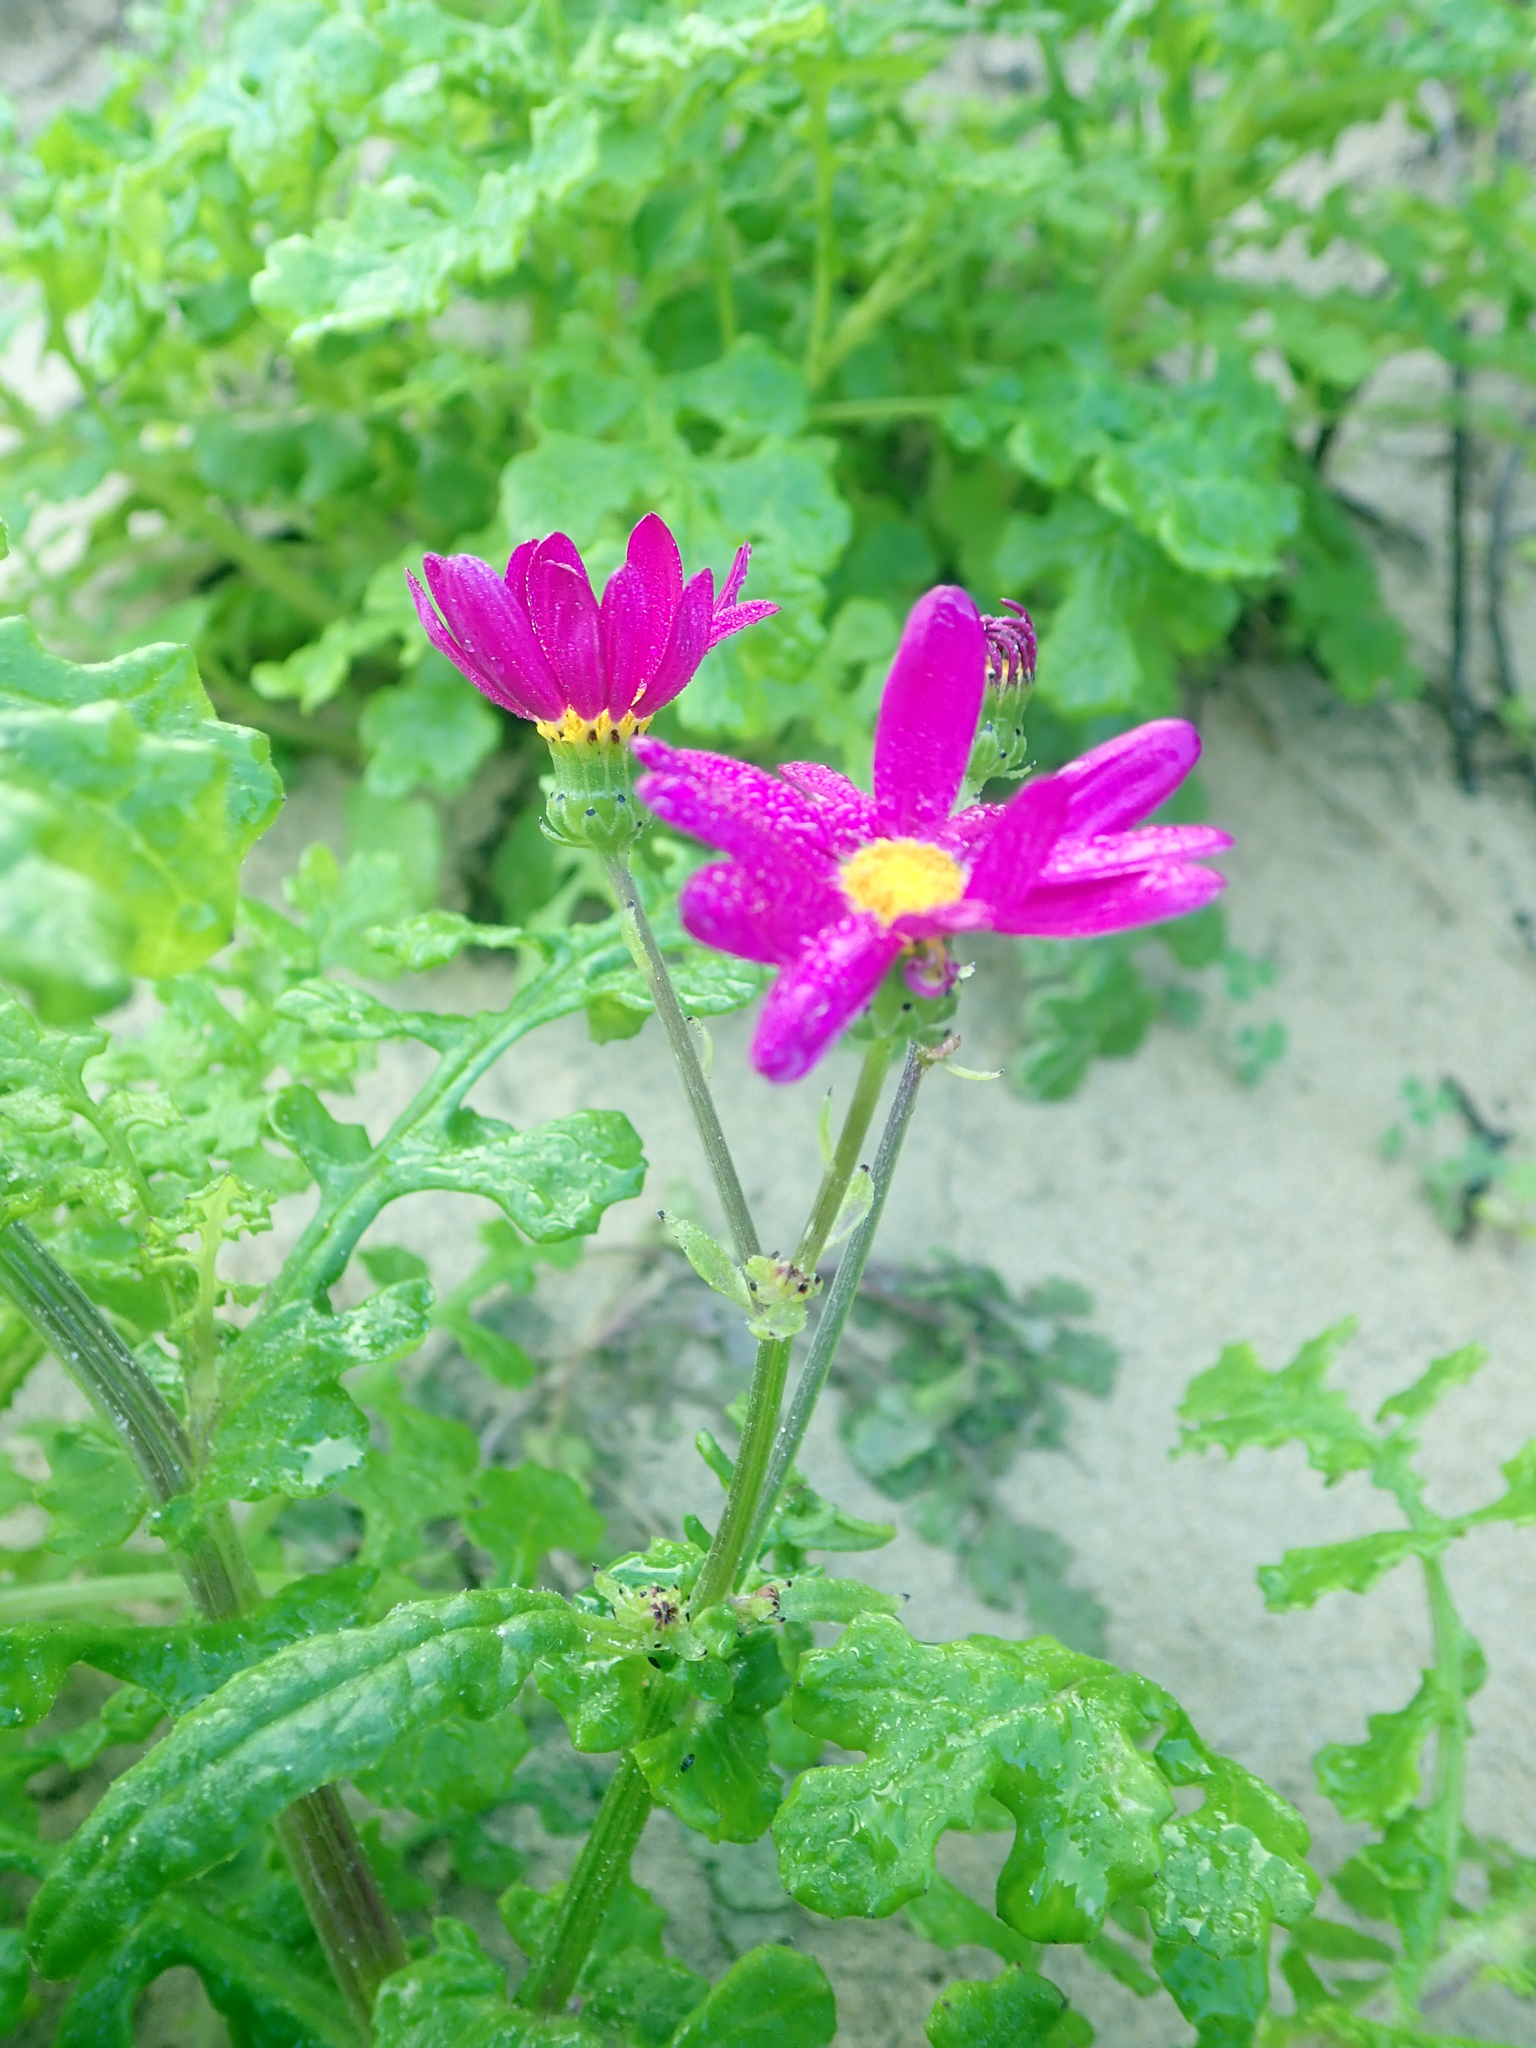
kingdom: Plantae
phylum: Tracheophyta
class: Magnoliopsida
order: Asterales
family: Asteraceae
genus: Senecio
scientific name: Senecio elegans
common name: Purple groundsel
